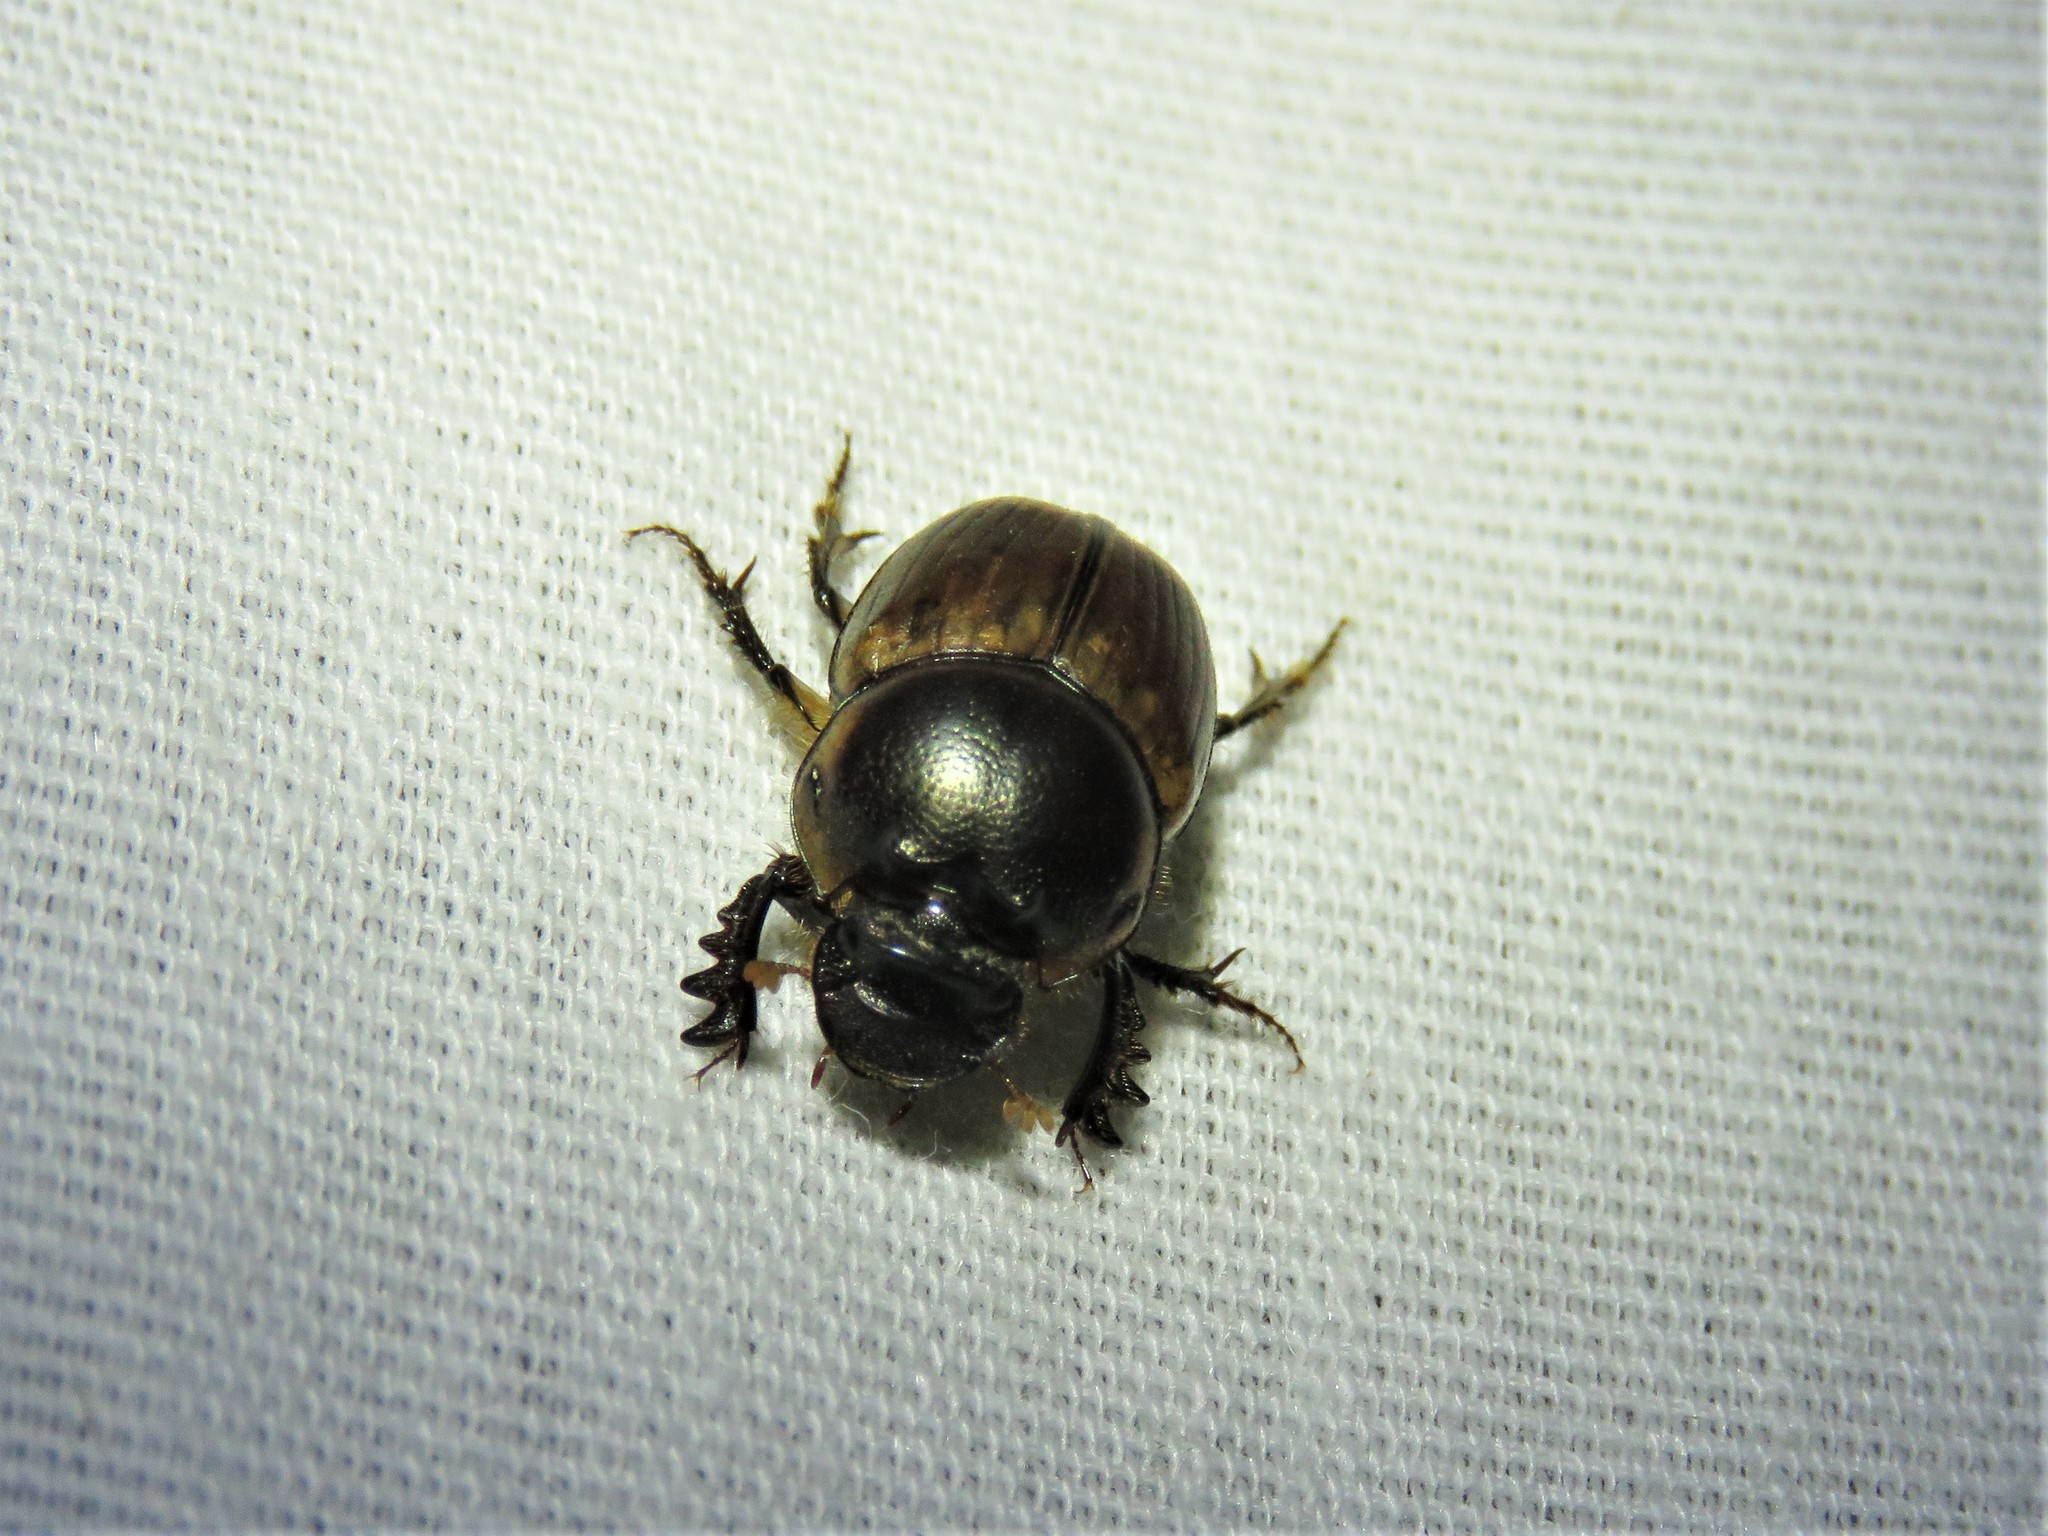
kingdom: Animalia
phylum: Arthropoda
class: Insecta
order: Coleoptera
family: Scarabaeidae
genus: Digitonthophagus
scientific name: Digitonthophagus gazella
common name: Brown dung beetle
